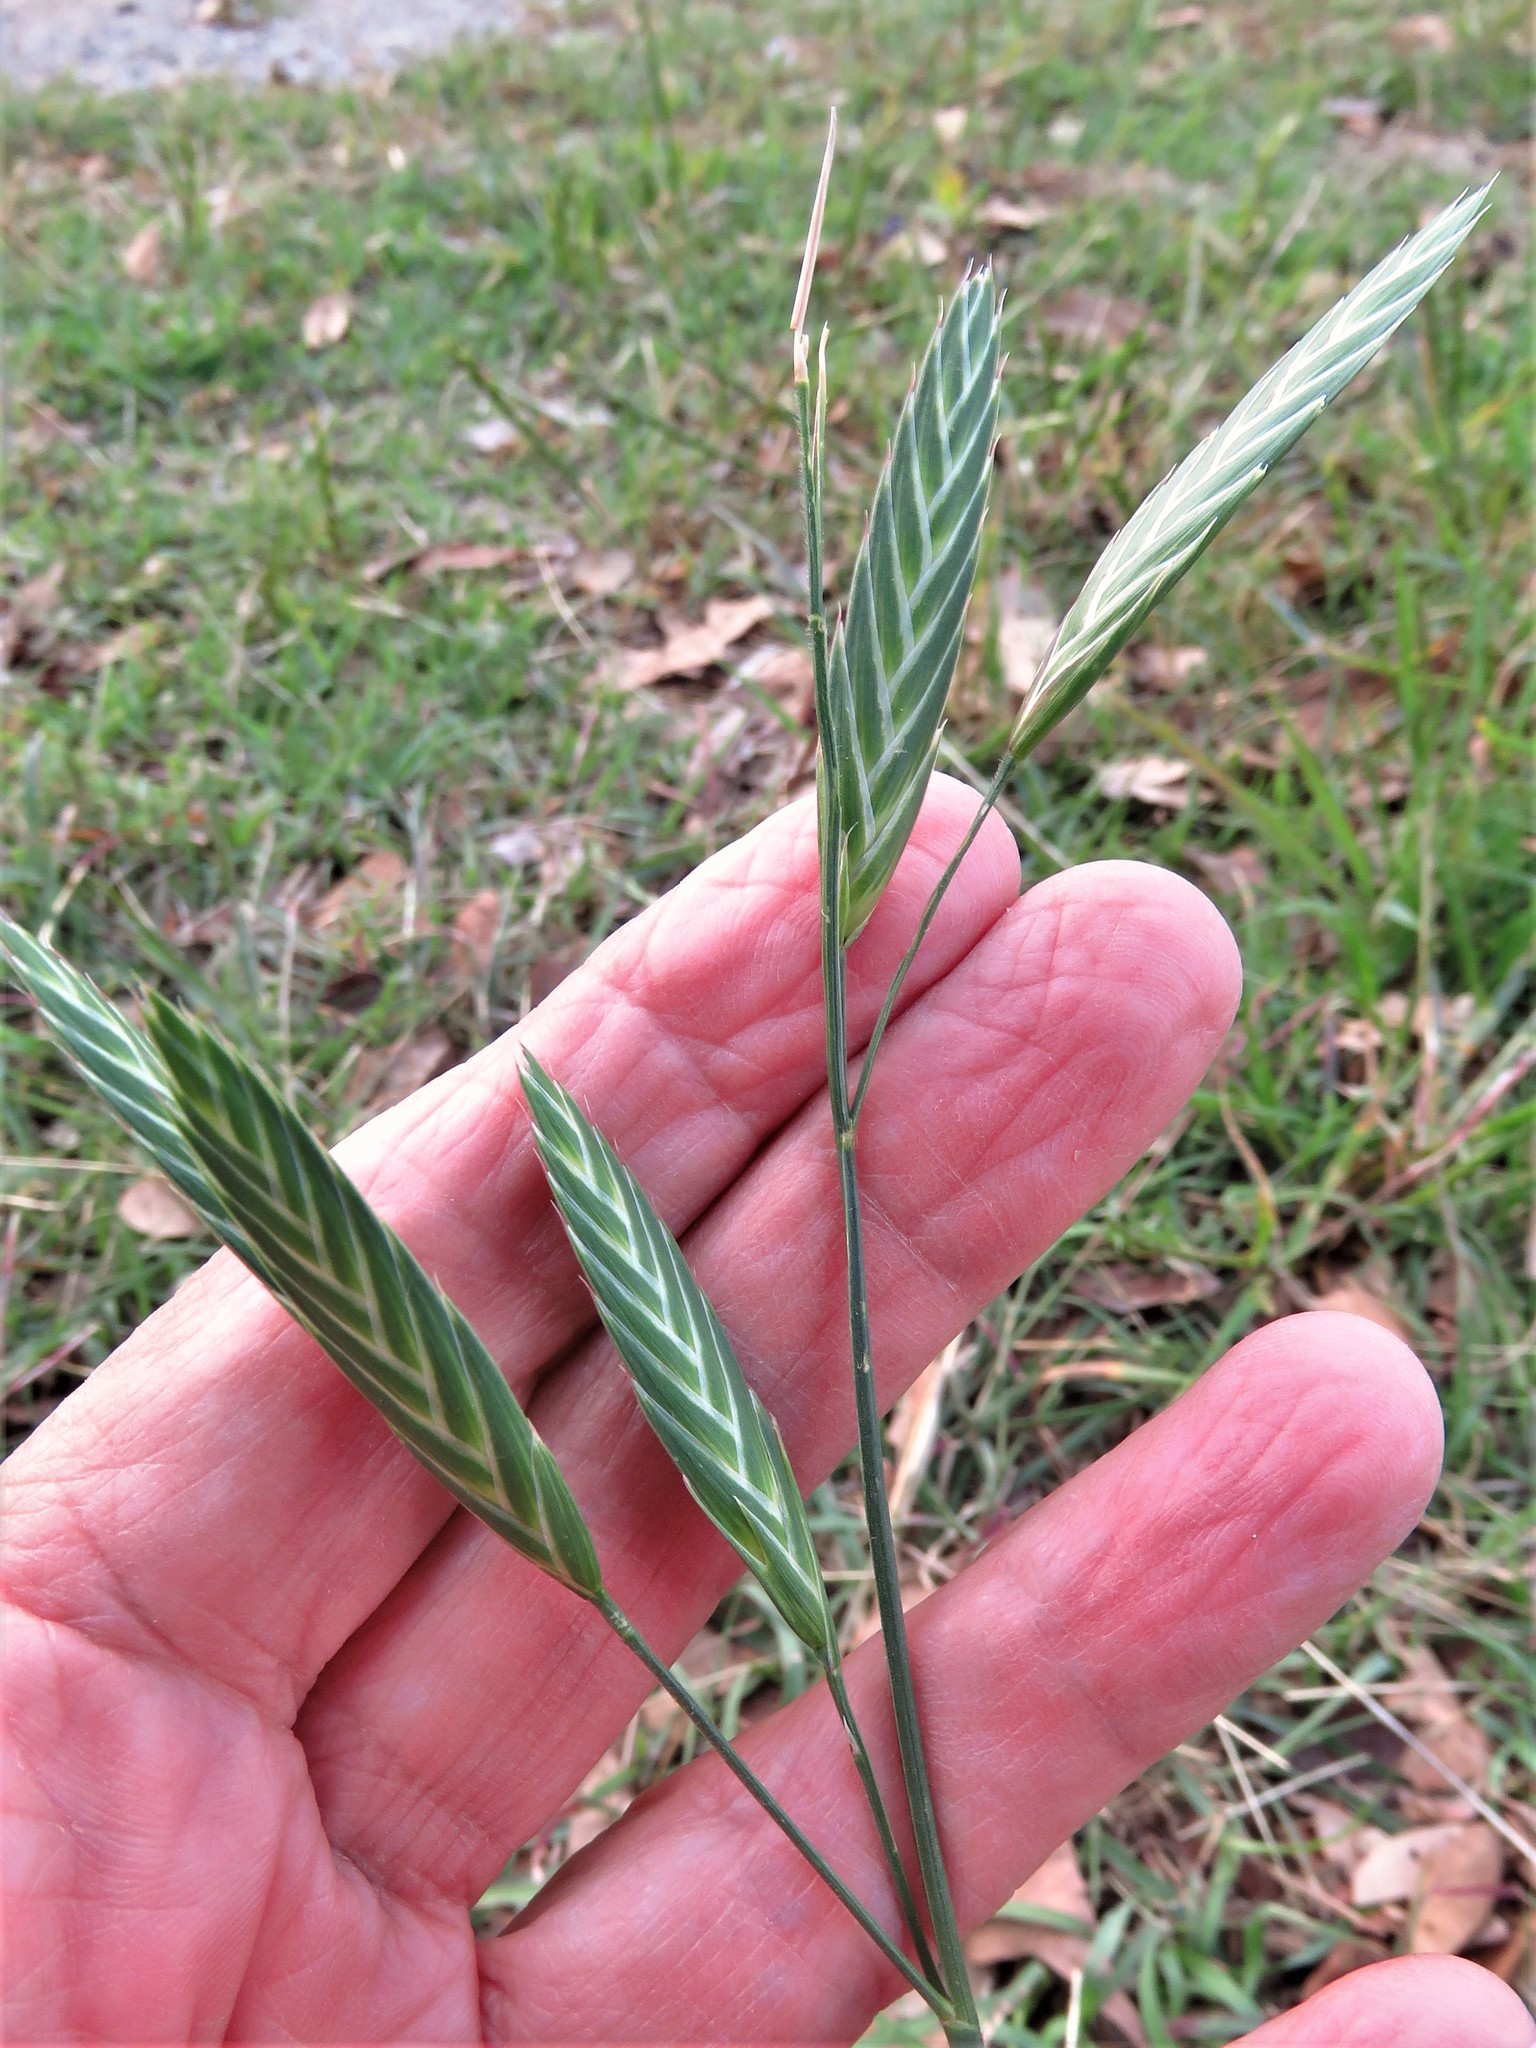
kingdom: Plantae
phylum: Tracheophyta
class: Liliopsida
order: Poales
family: Poaceae
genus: Bromus
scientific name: Bromus catharticus
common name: Rescuegrass
